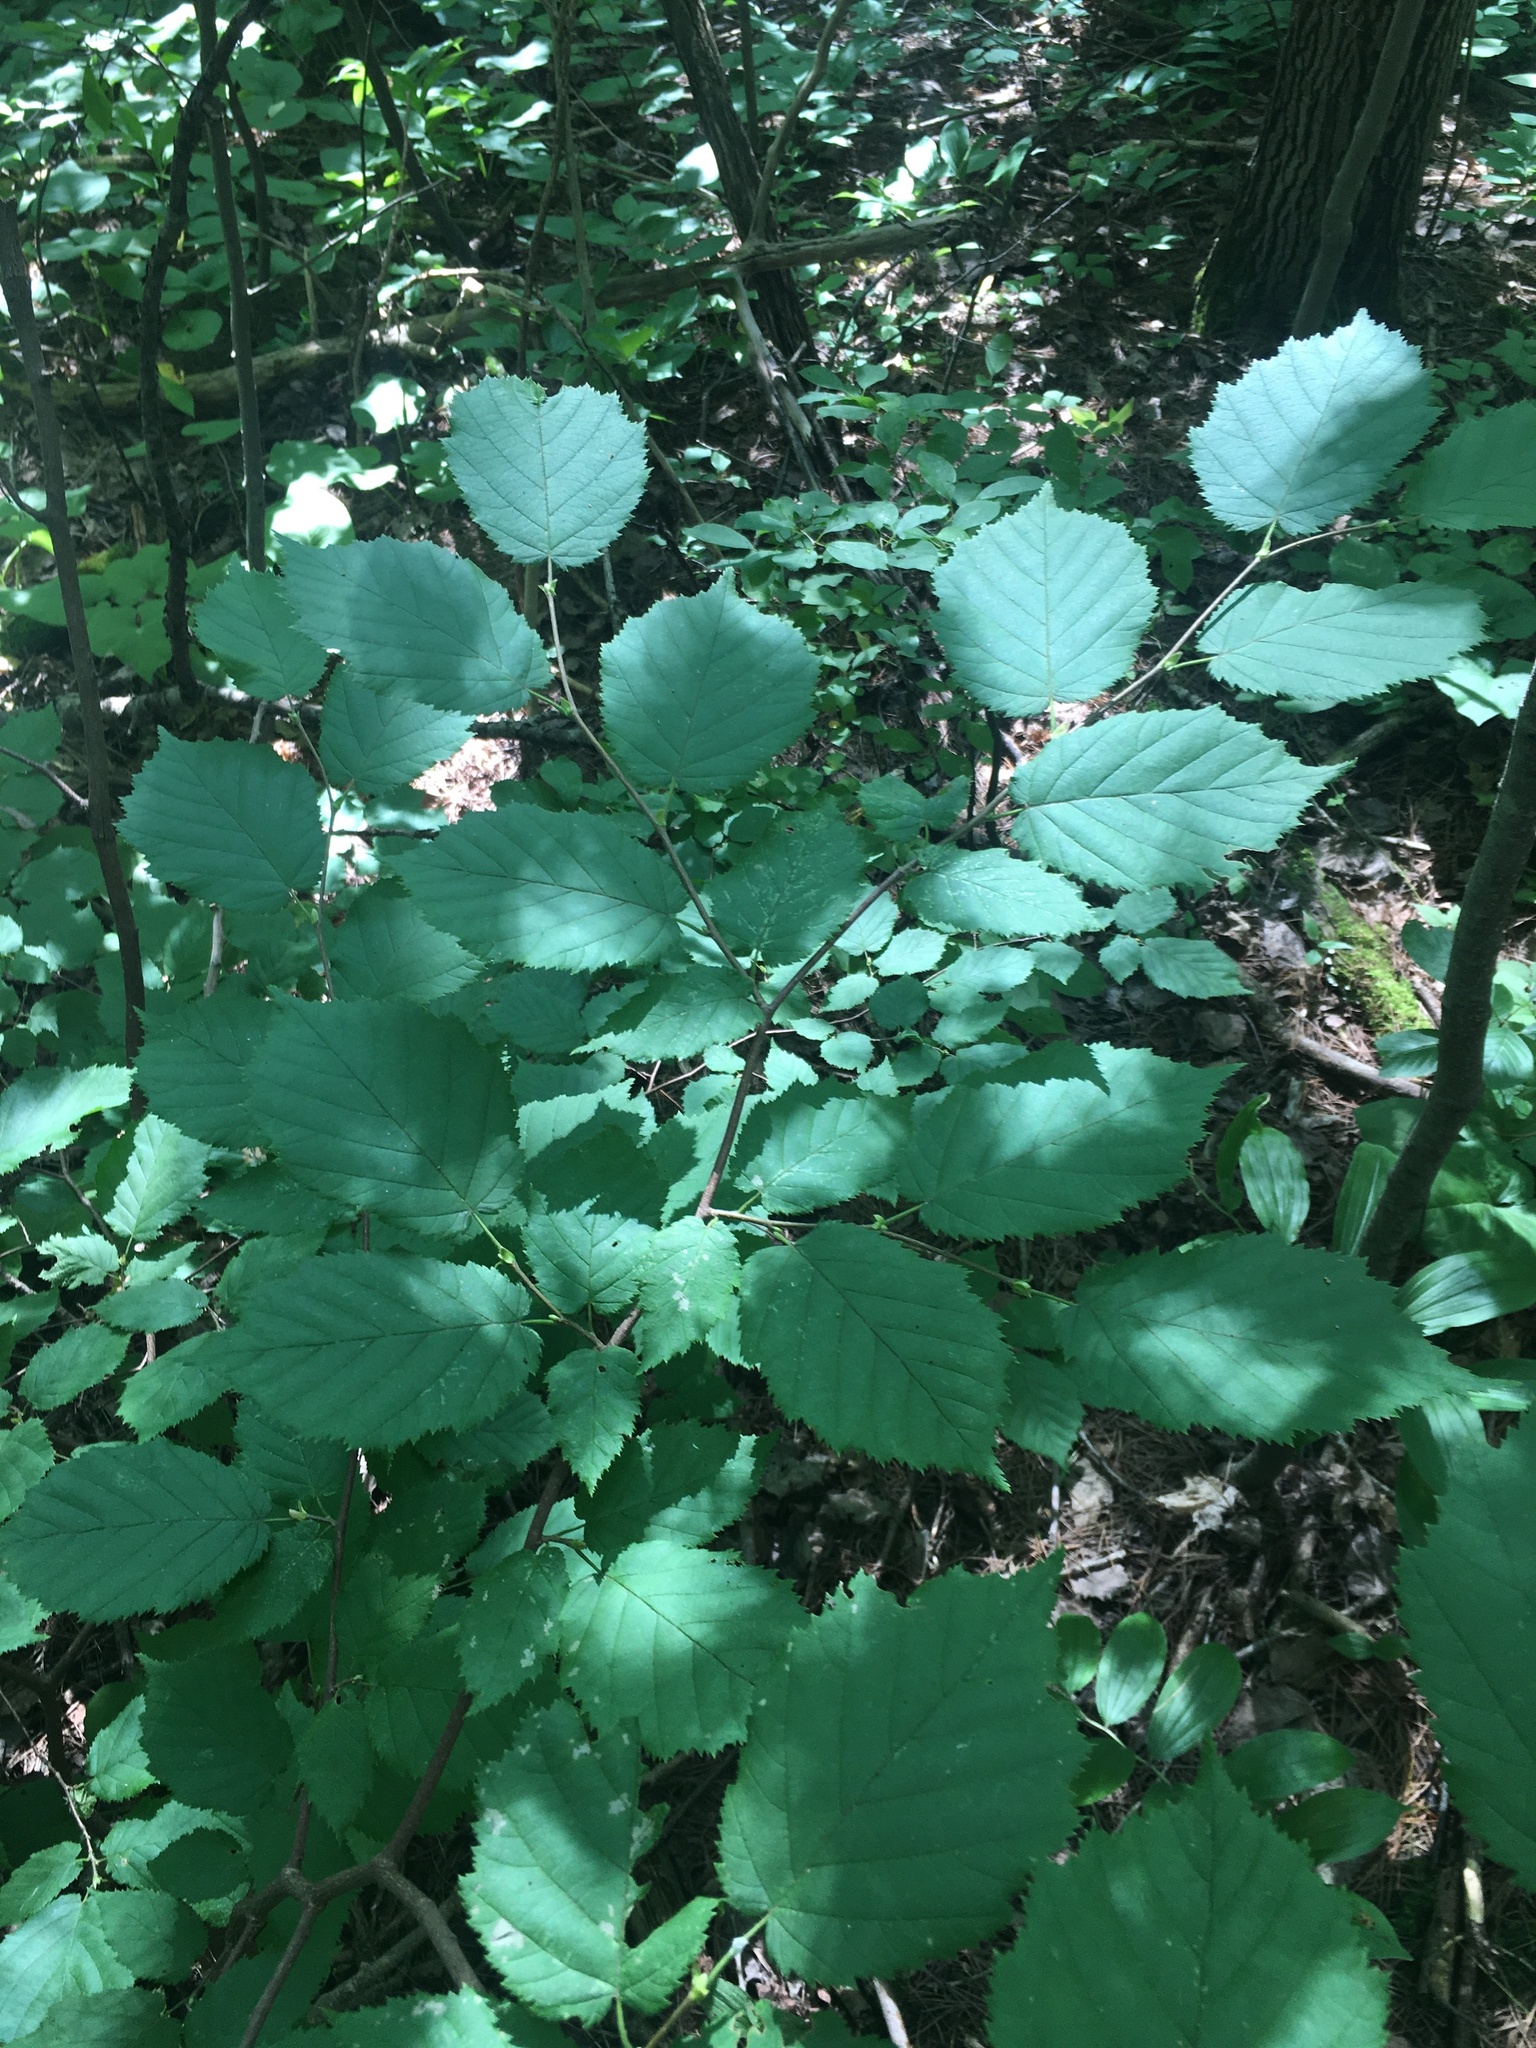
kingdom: Plantae
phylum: Tracheophyta
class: Magnoliopsida
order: Fagales
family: Betulaceae
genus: Corylus
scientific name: Corylus cornuta
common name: Beaked hazel
